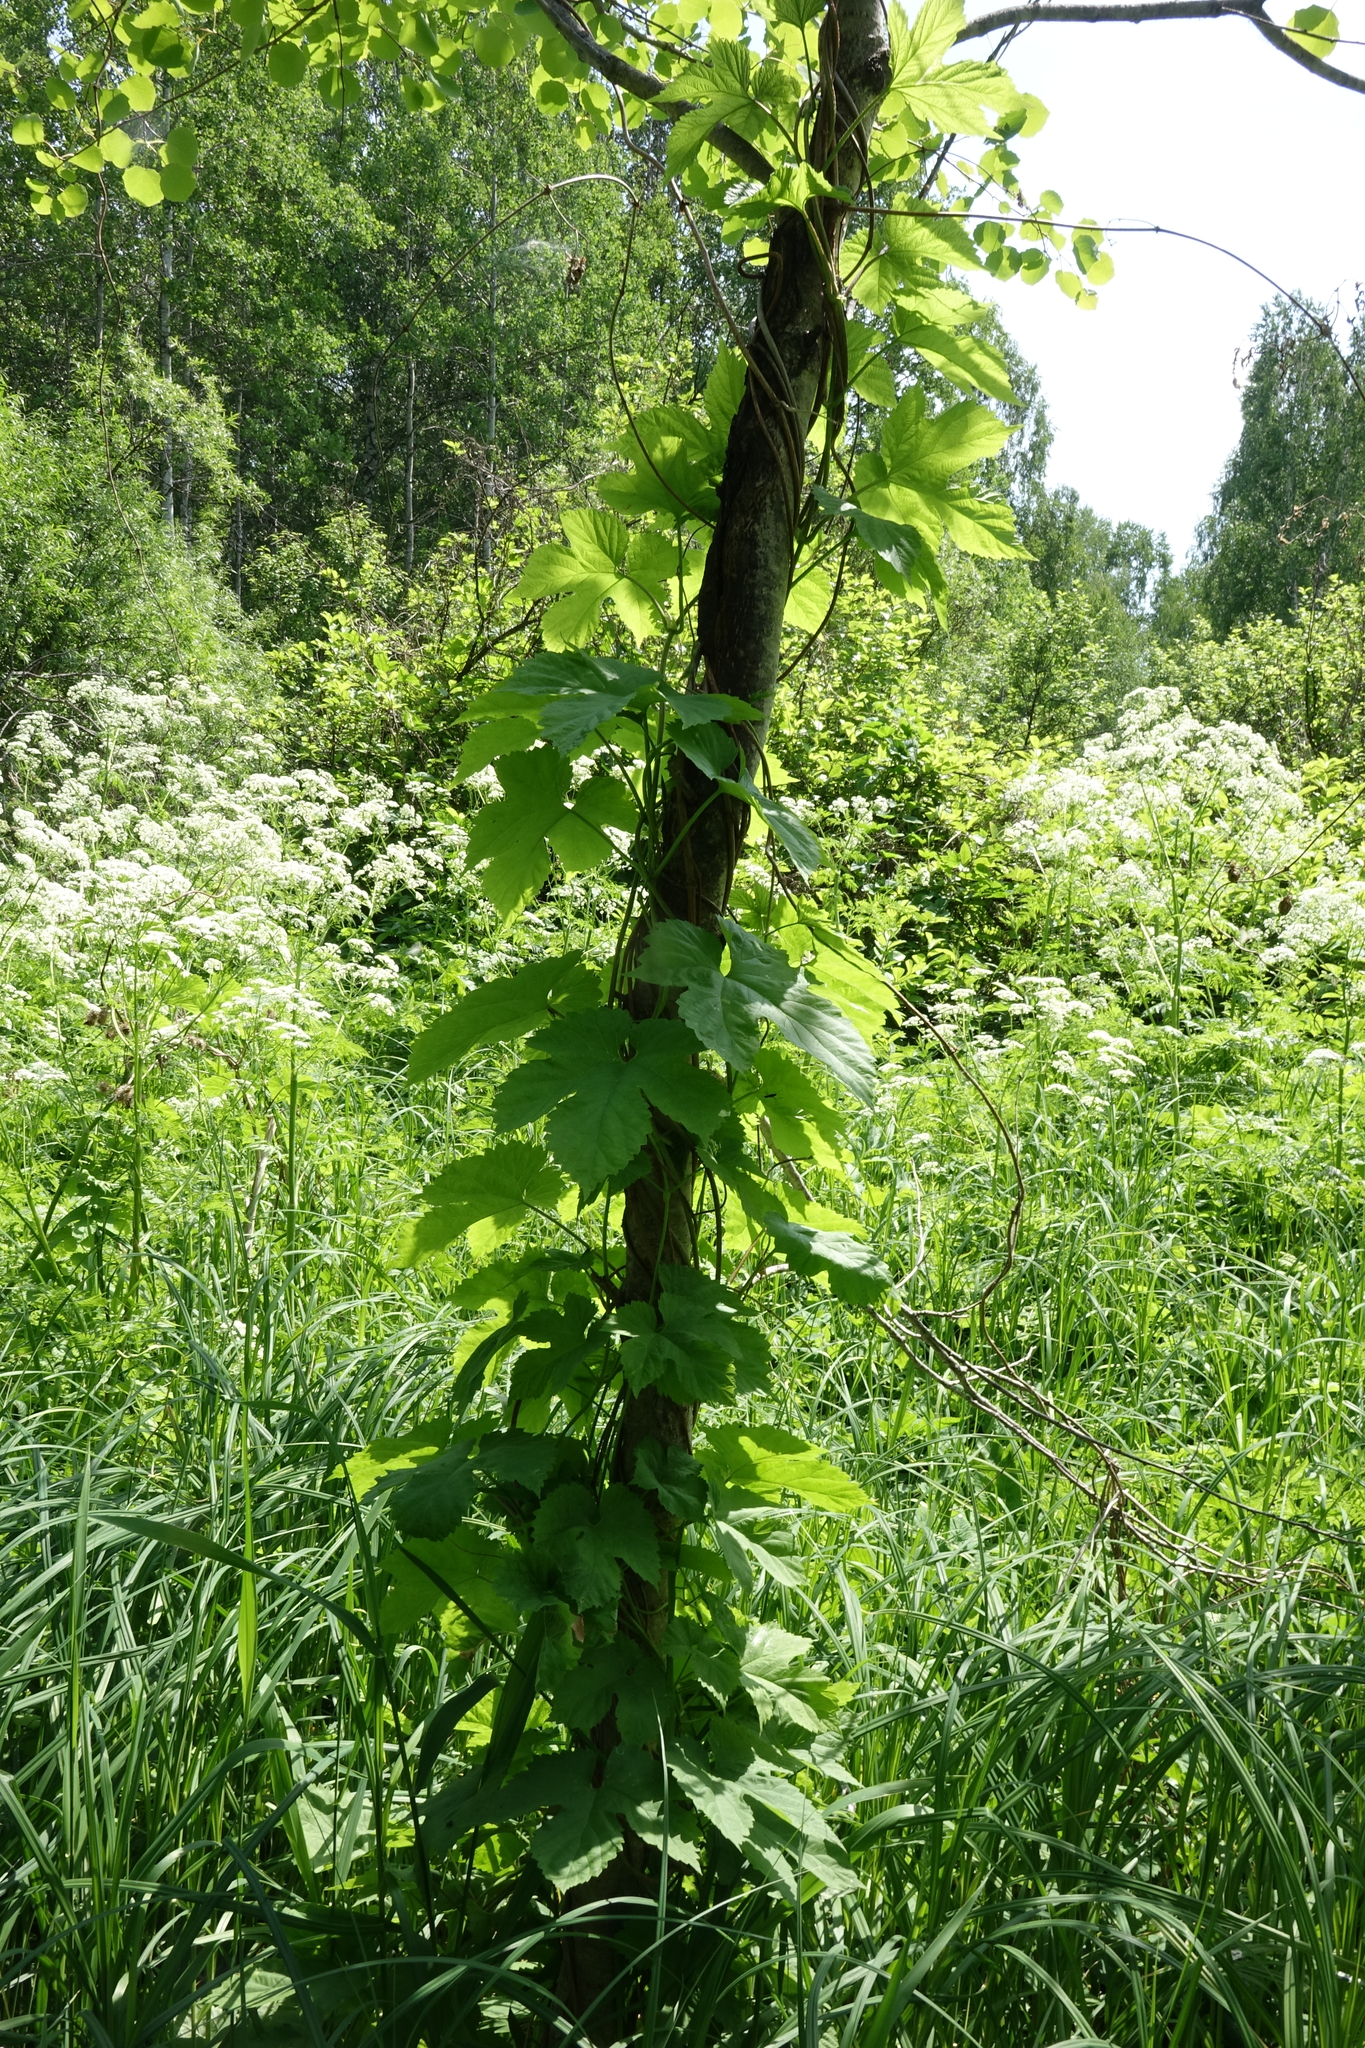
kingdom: Plantae
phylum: Tracheophyta
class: Magnoliopsida
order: Rosales
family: Cannabaceae
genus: Humulus
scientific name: Humulus lupulus
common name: Hop
